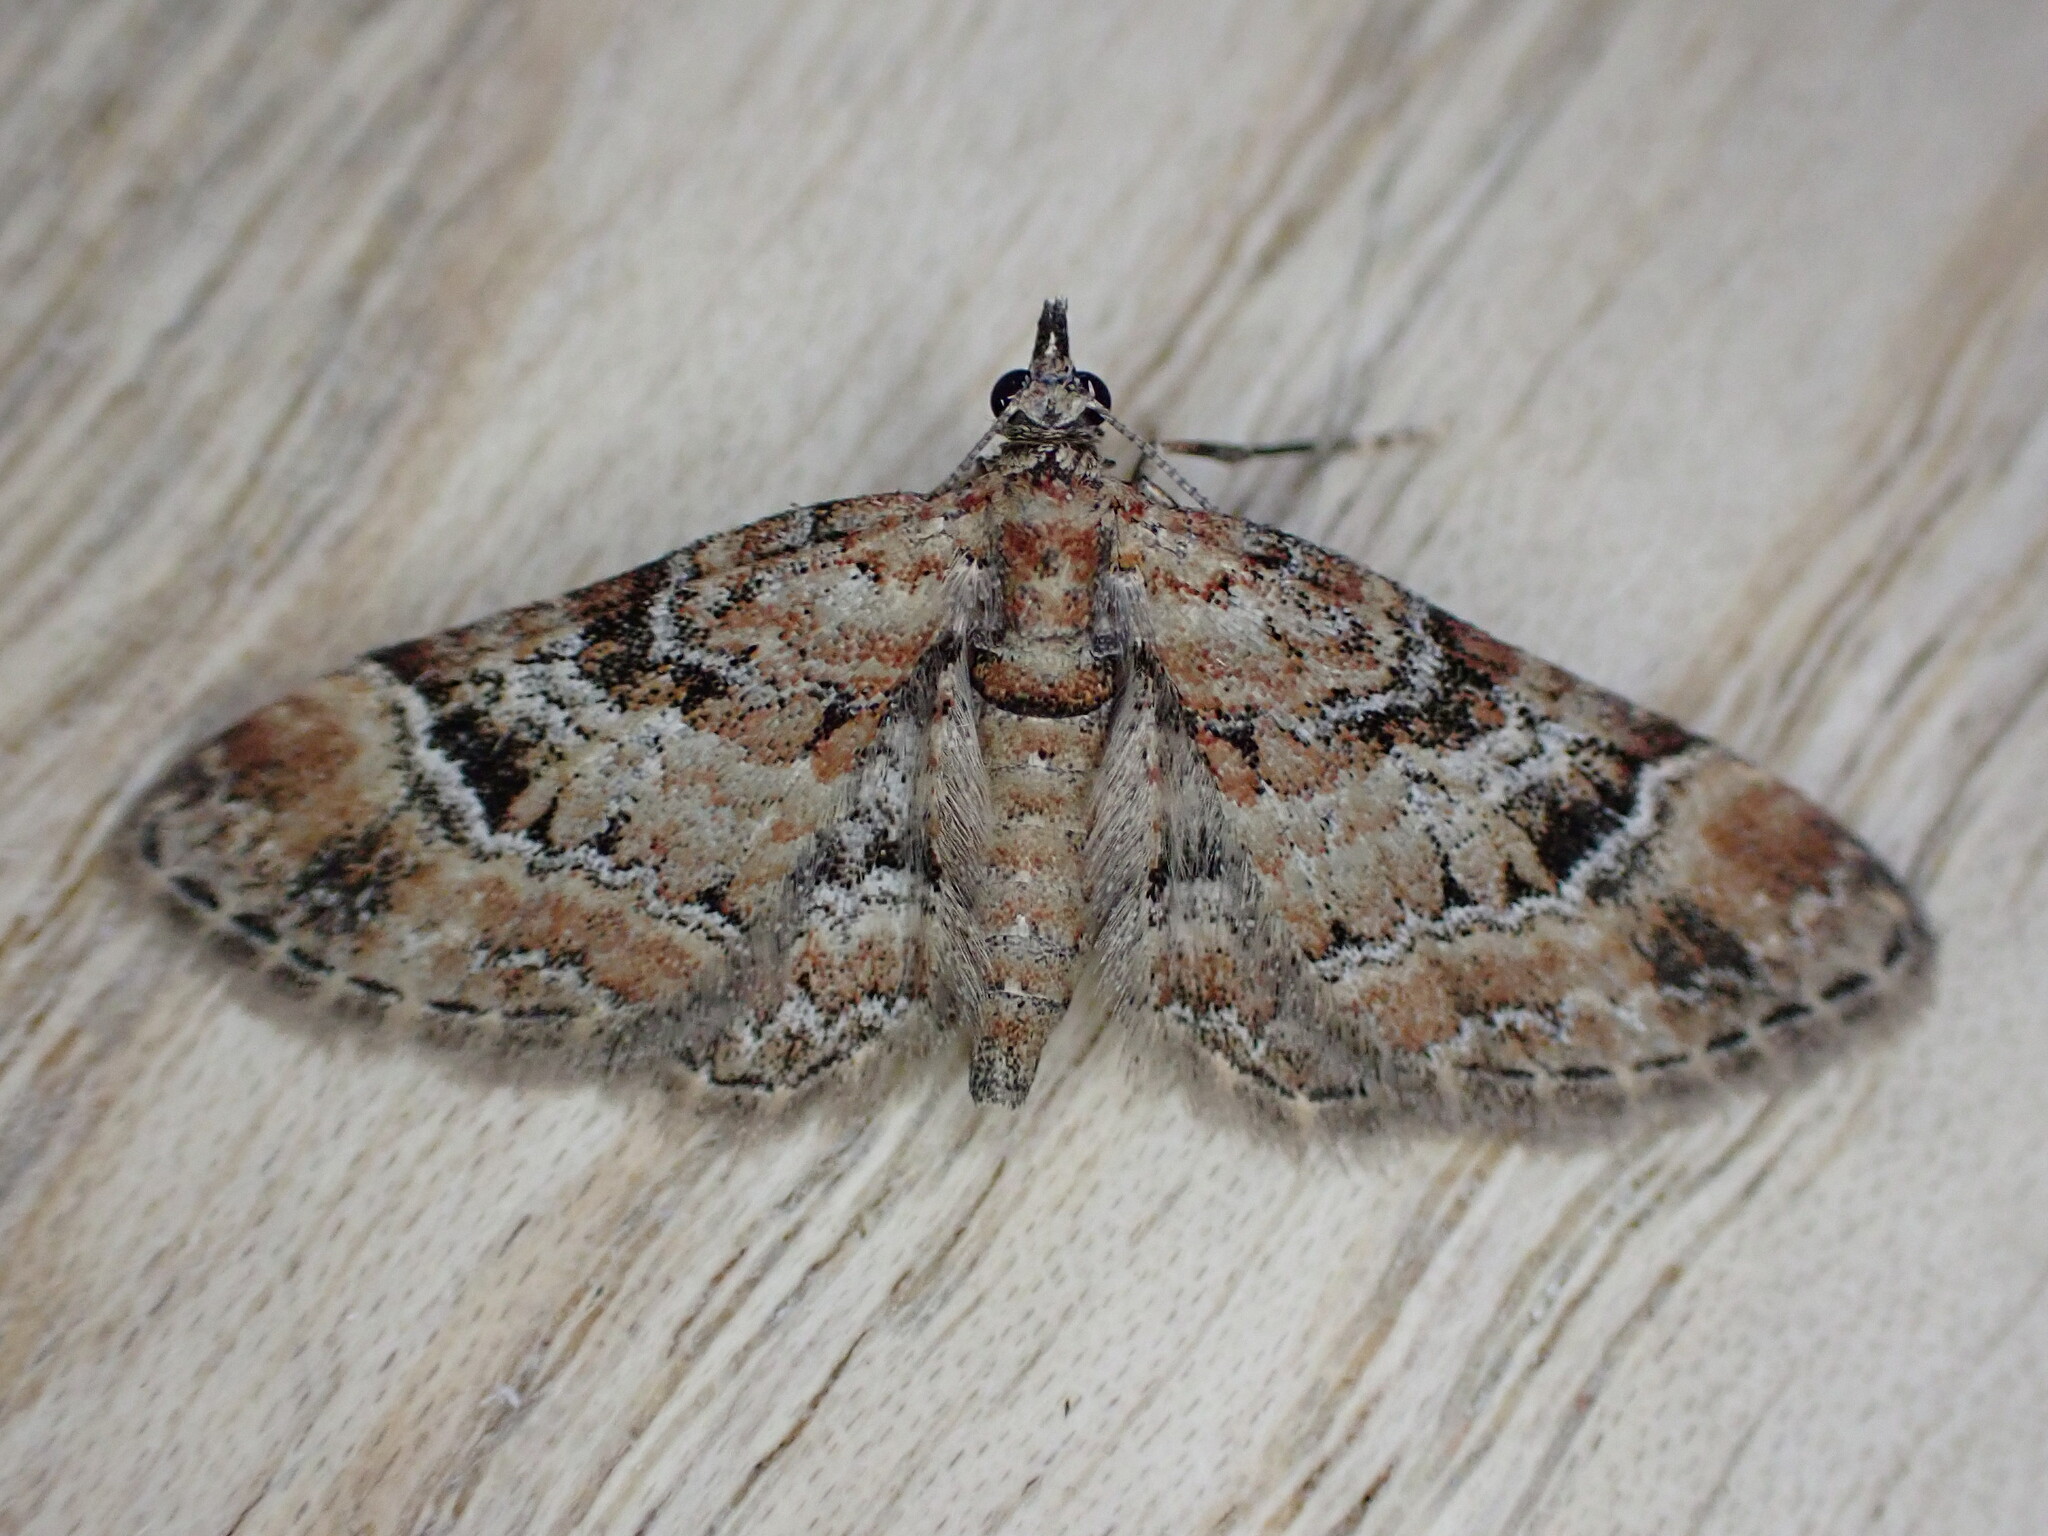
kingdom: Animalia
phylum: Arthropoda
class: Insecta
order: Lepidoptera
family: Geometridae
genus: Gymnoscelis
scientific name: Gymnoscelis rufifasciata
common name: Double-striped pug
